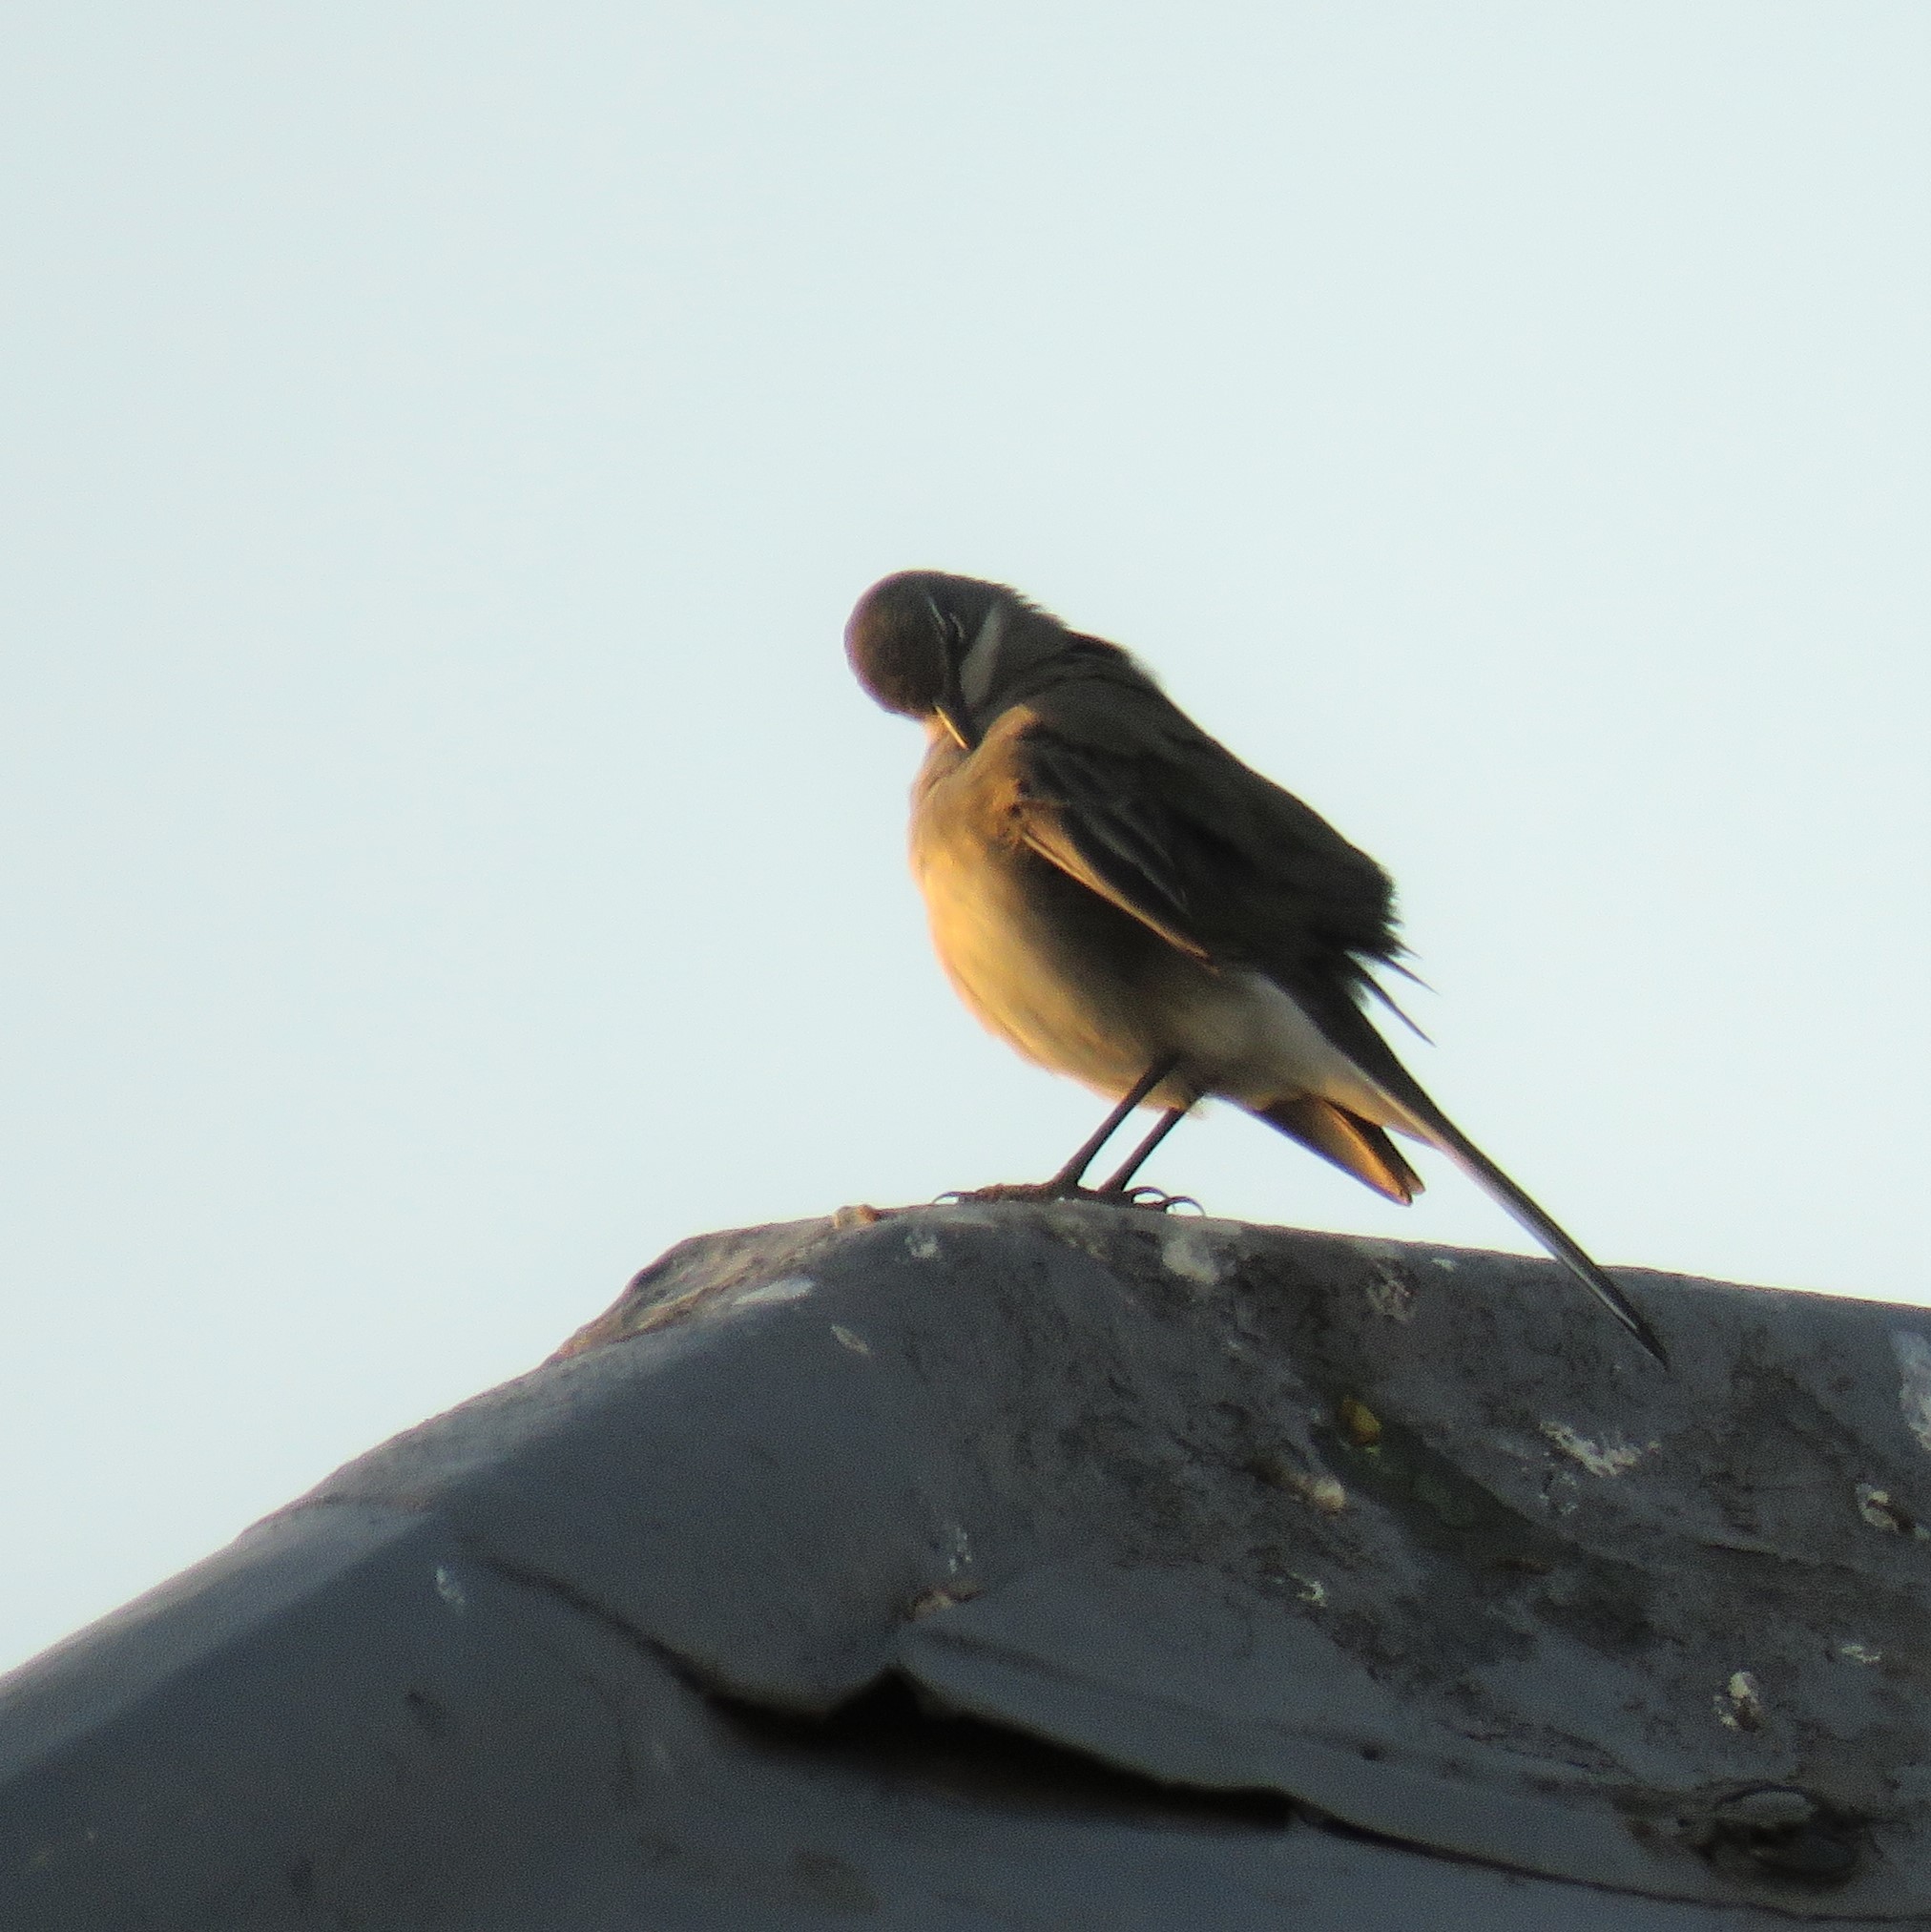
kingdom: Animalia
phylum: Chordata
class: Aves
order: Passeriformes
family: Motacillidae
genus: Motacilla
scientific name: Motacilla capensis
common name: Cape wagtail
